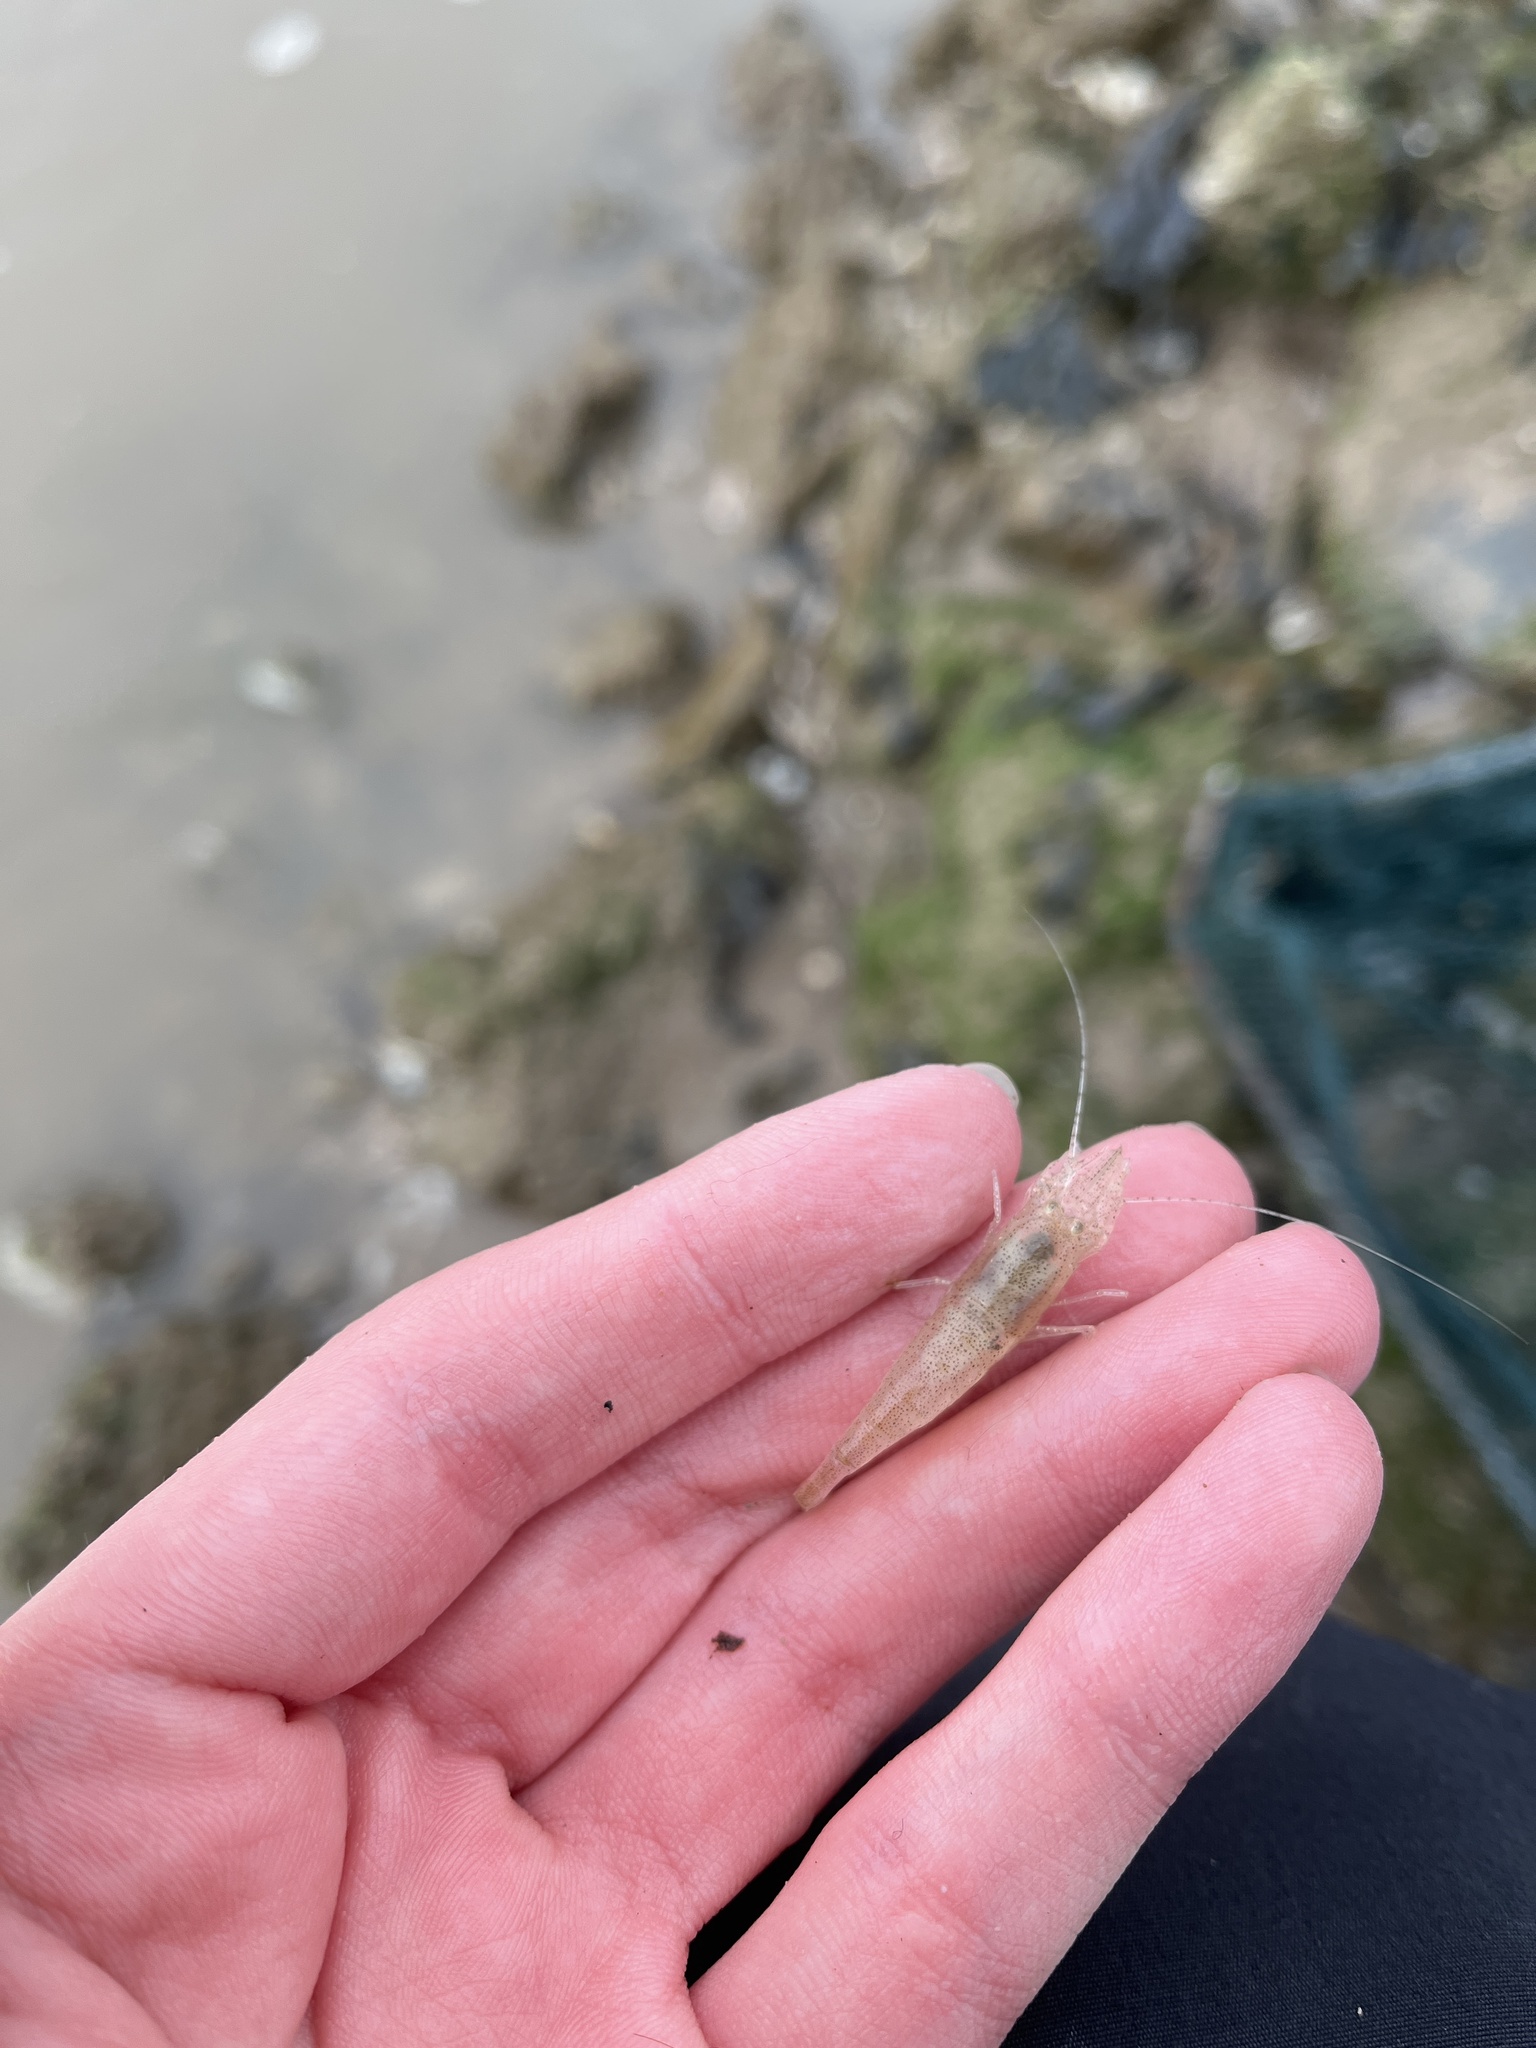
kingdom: Animalia
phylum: Arthropoda
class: Malacostraca
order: Decapoda
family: Crangonidae
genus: Crangon
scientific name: Crangon crangon
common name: Brown shrimp
